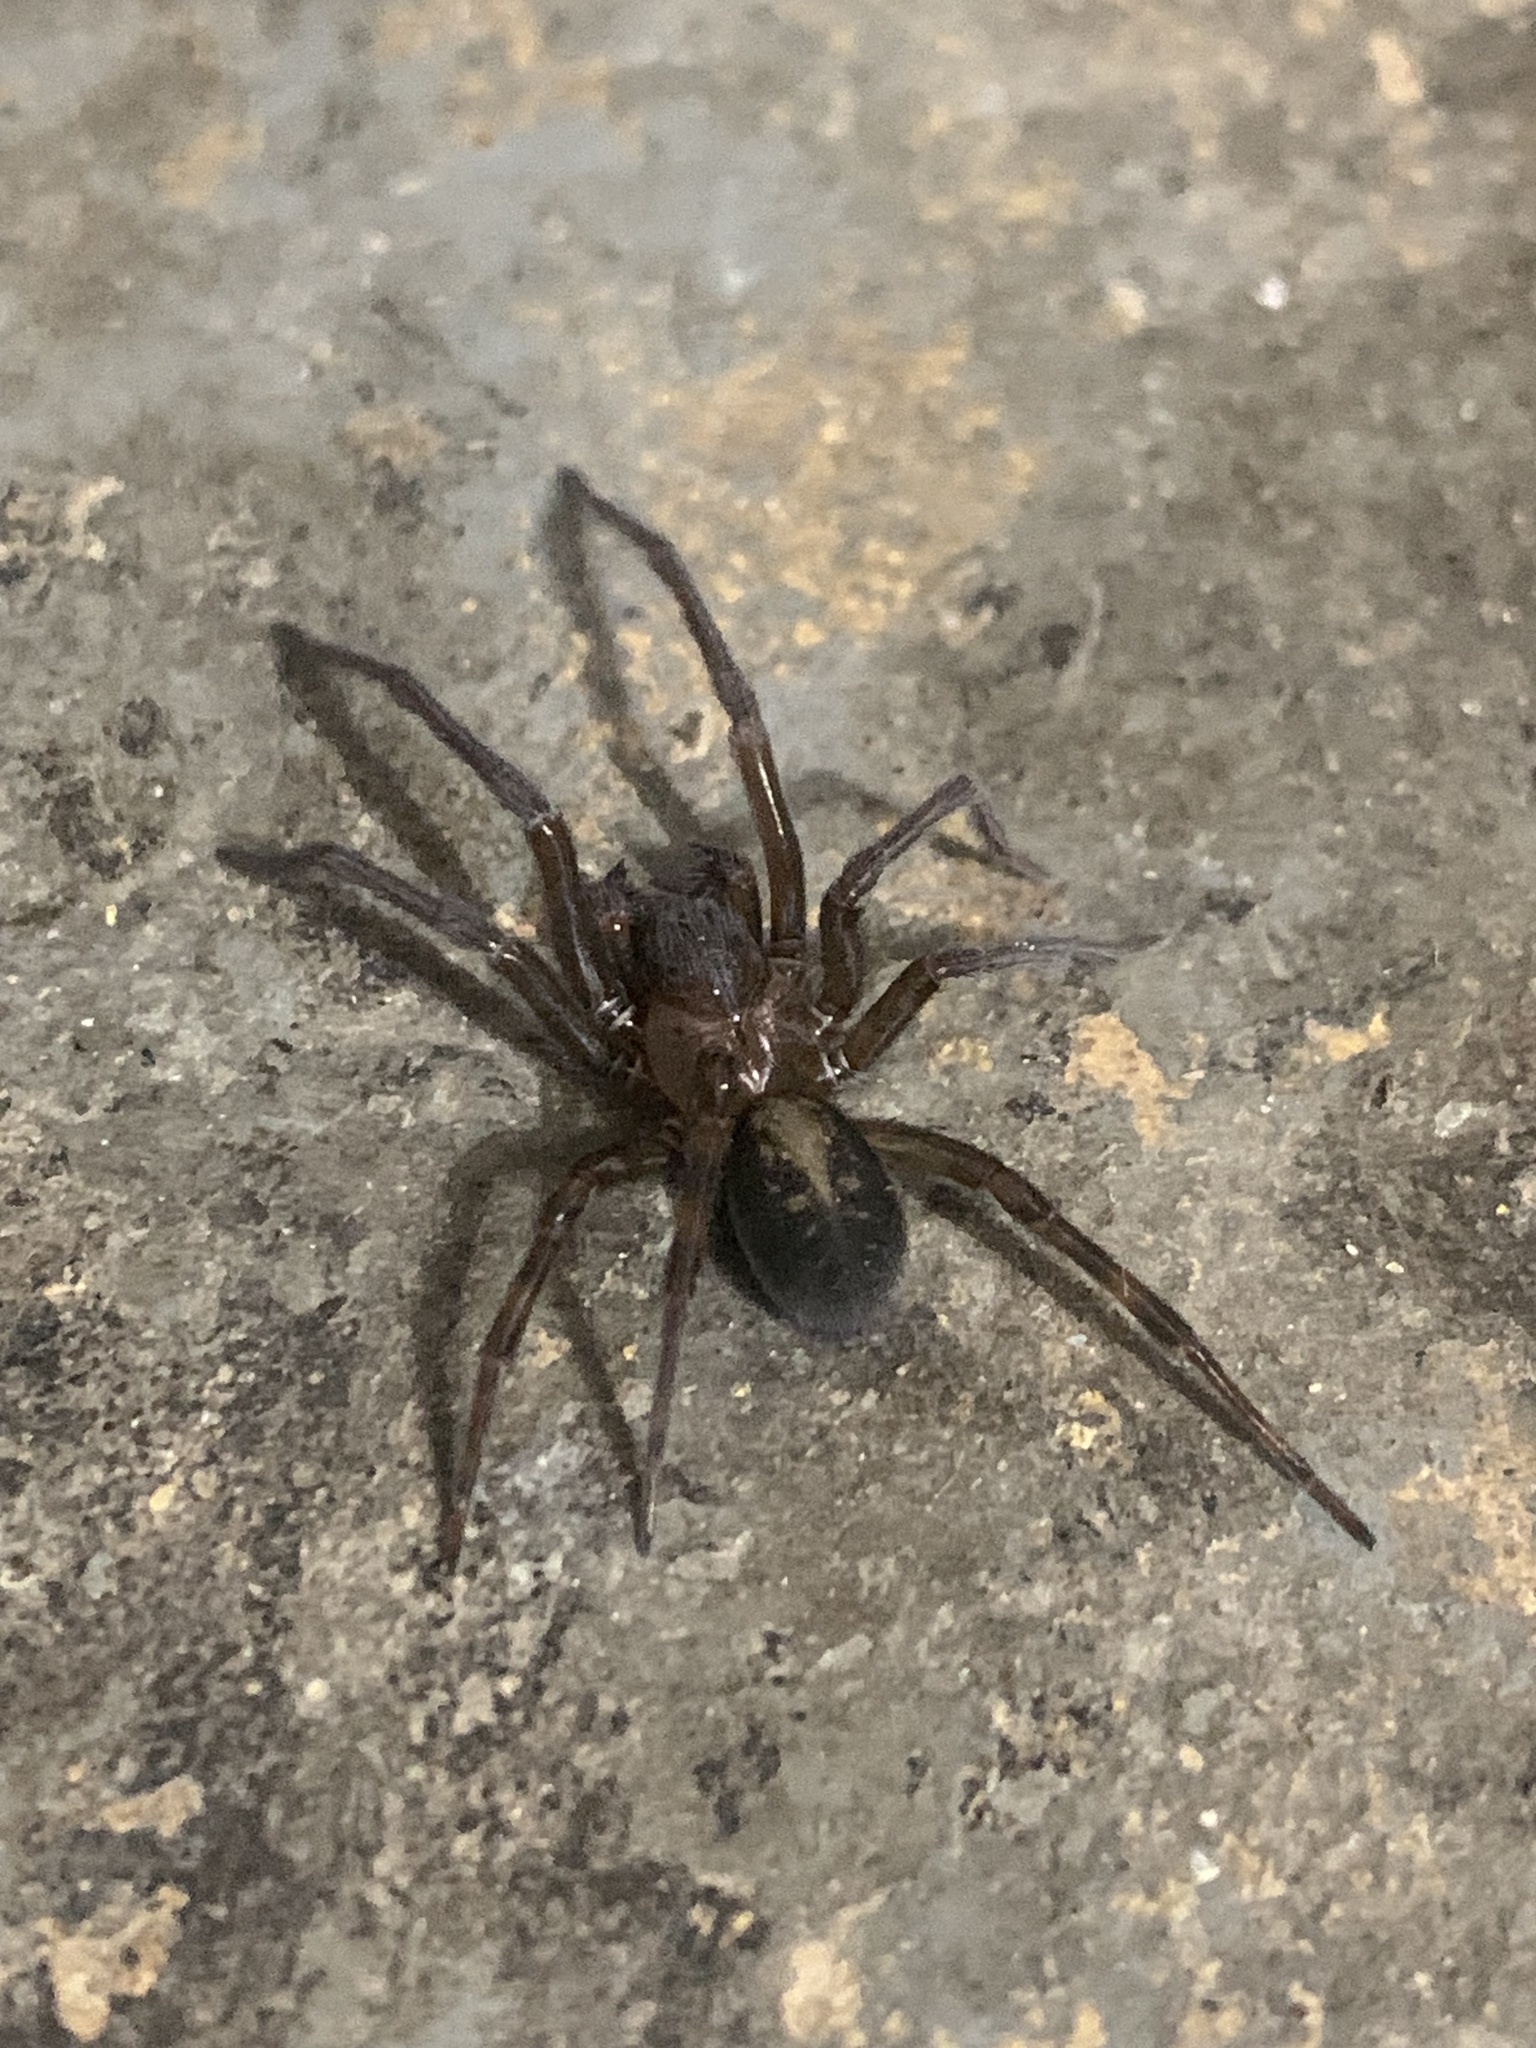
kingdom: Animalia
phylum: Arthropoda
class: Arachnida
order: Araneae
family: Amaurobiidae
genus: Amaurobius
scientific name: Amaurobius ferox
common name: Black laceweaver
